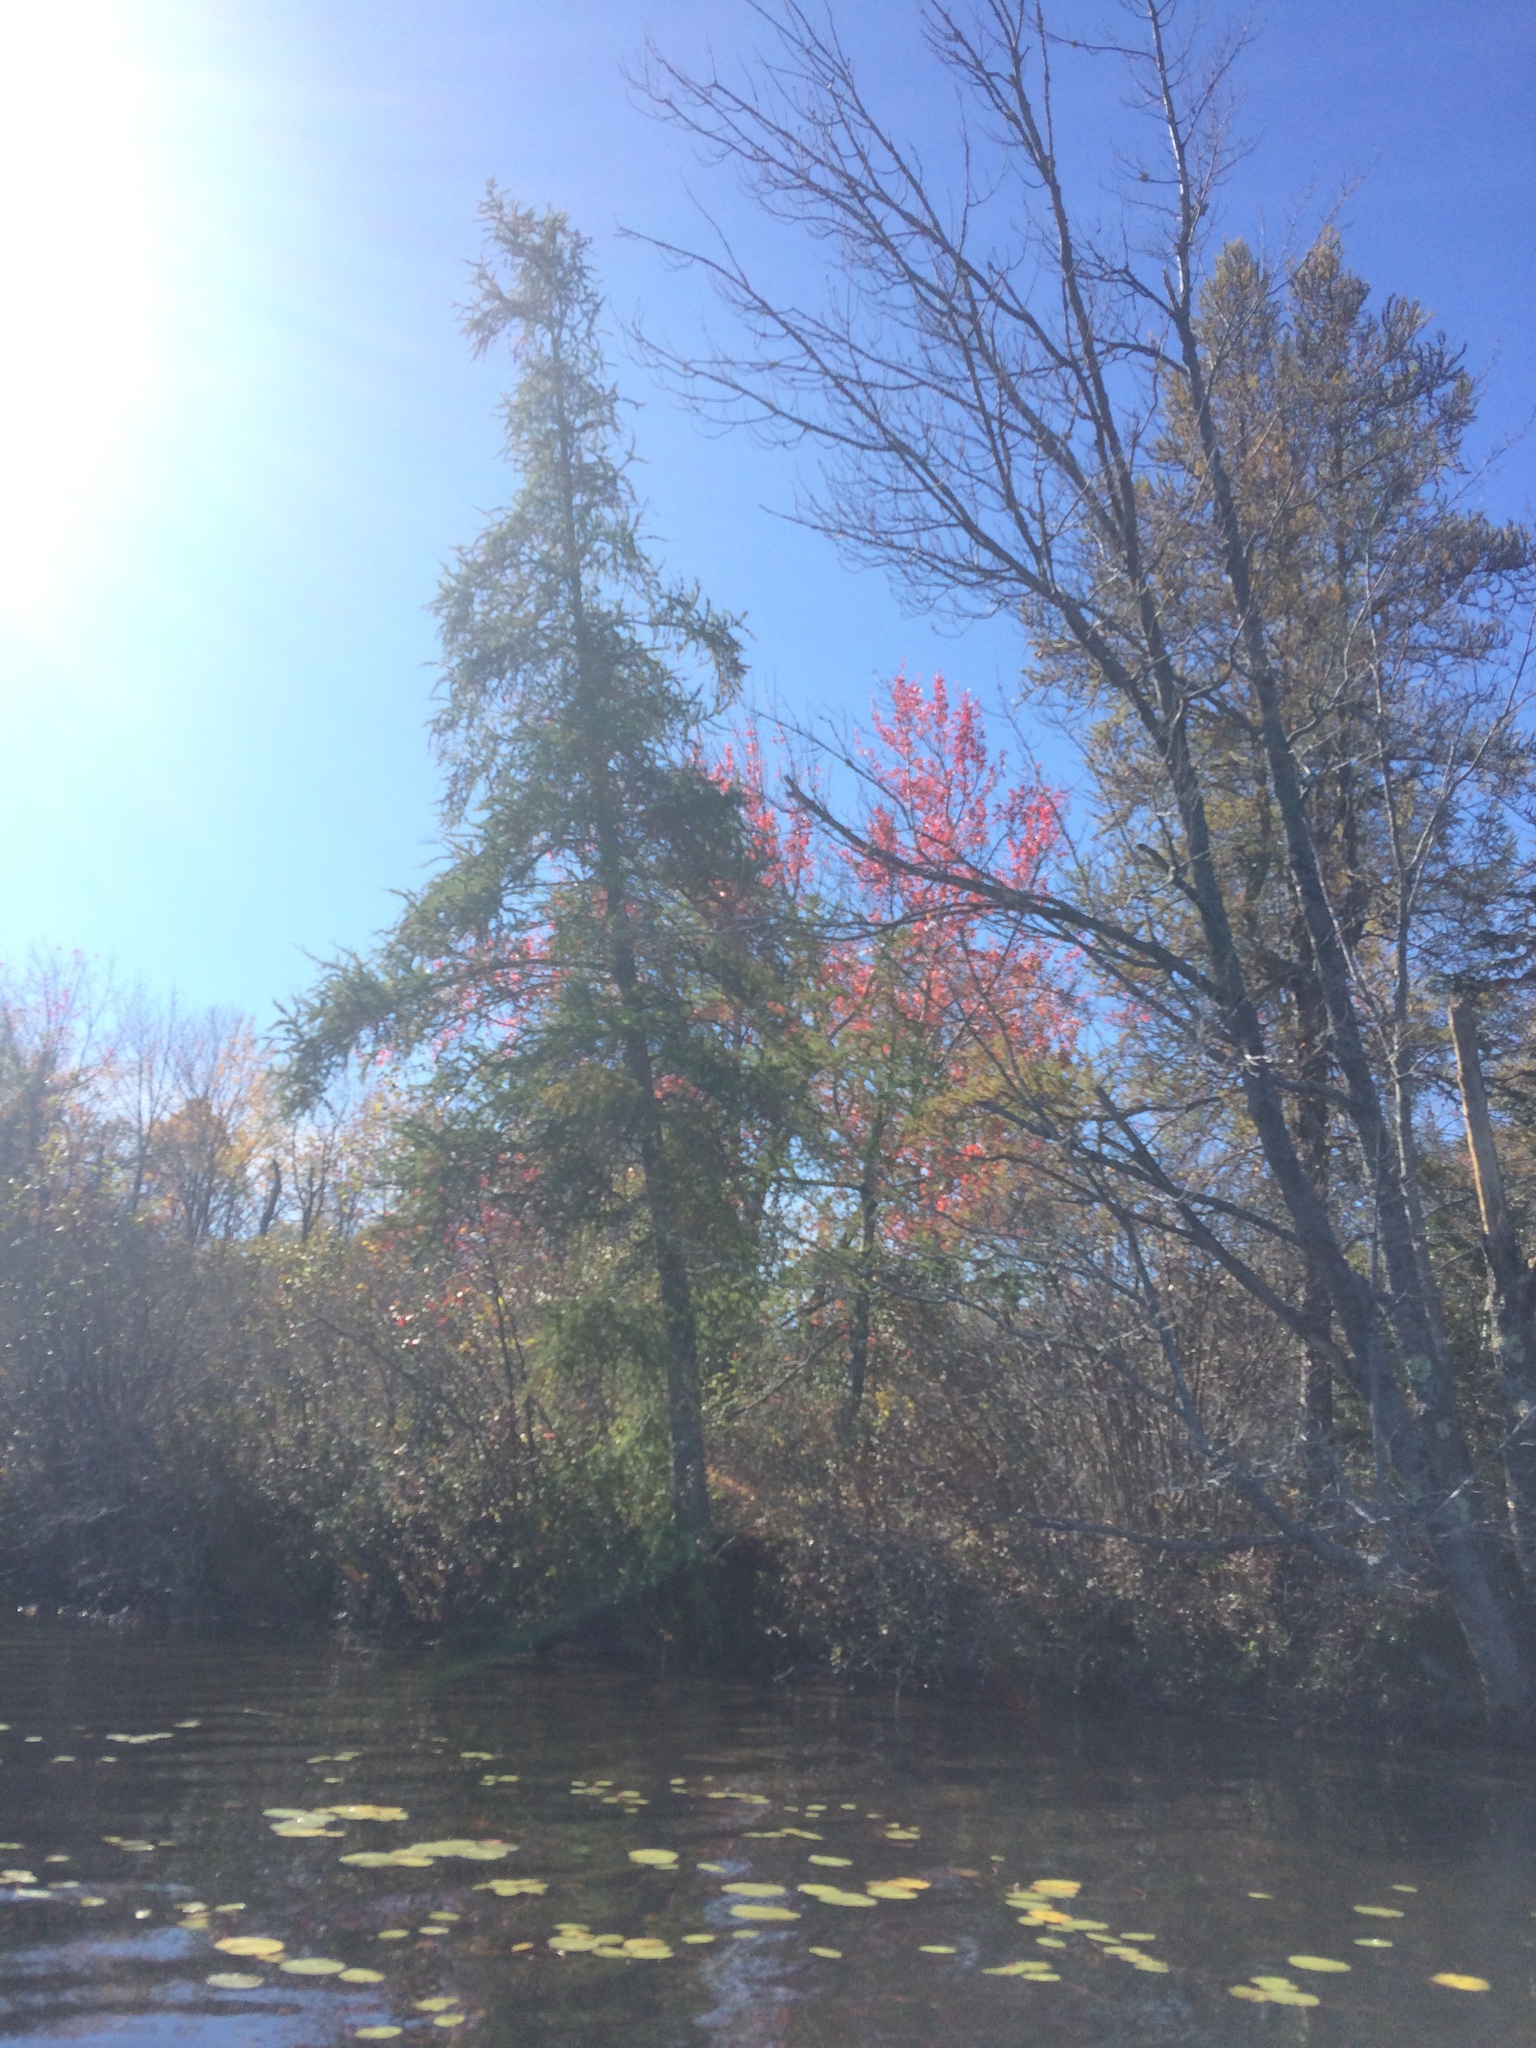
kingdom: Plantae
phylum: Tracheophyta
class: Pinopsida
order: Pinales
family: Pinaceae
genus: Larix
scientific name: Larix laricina
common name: American larch
